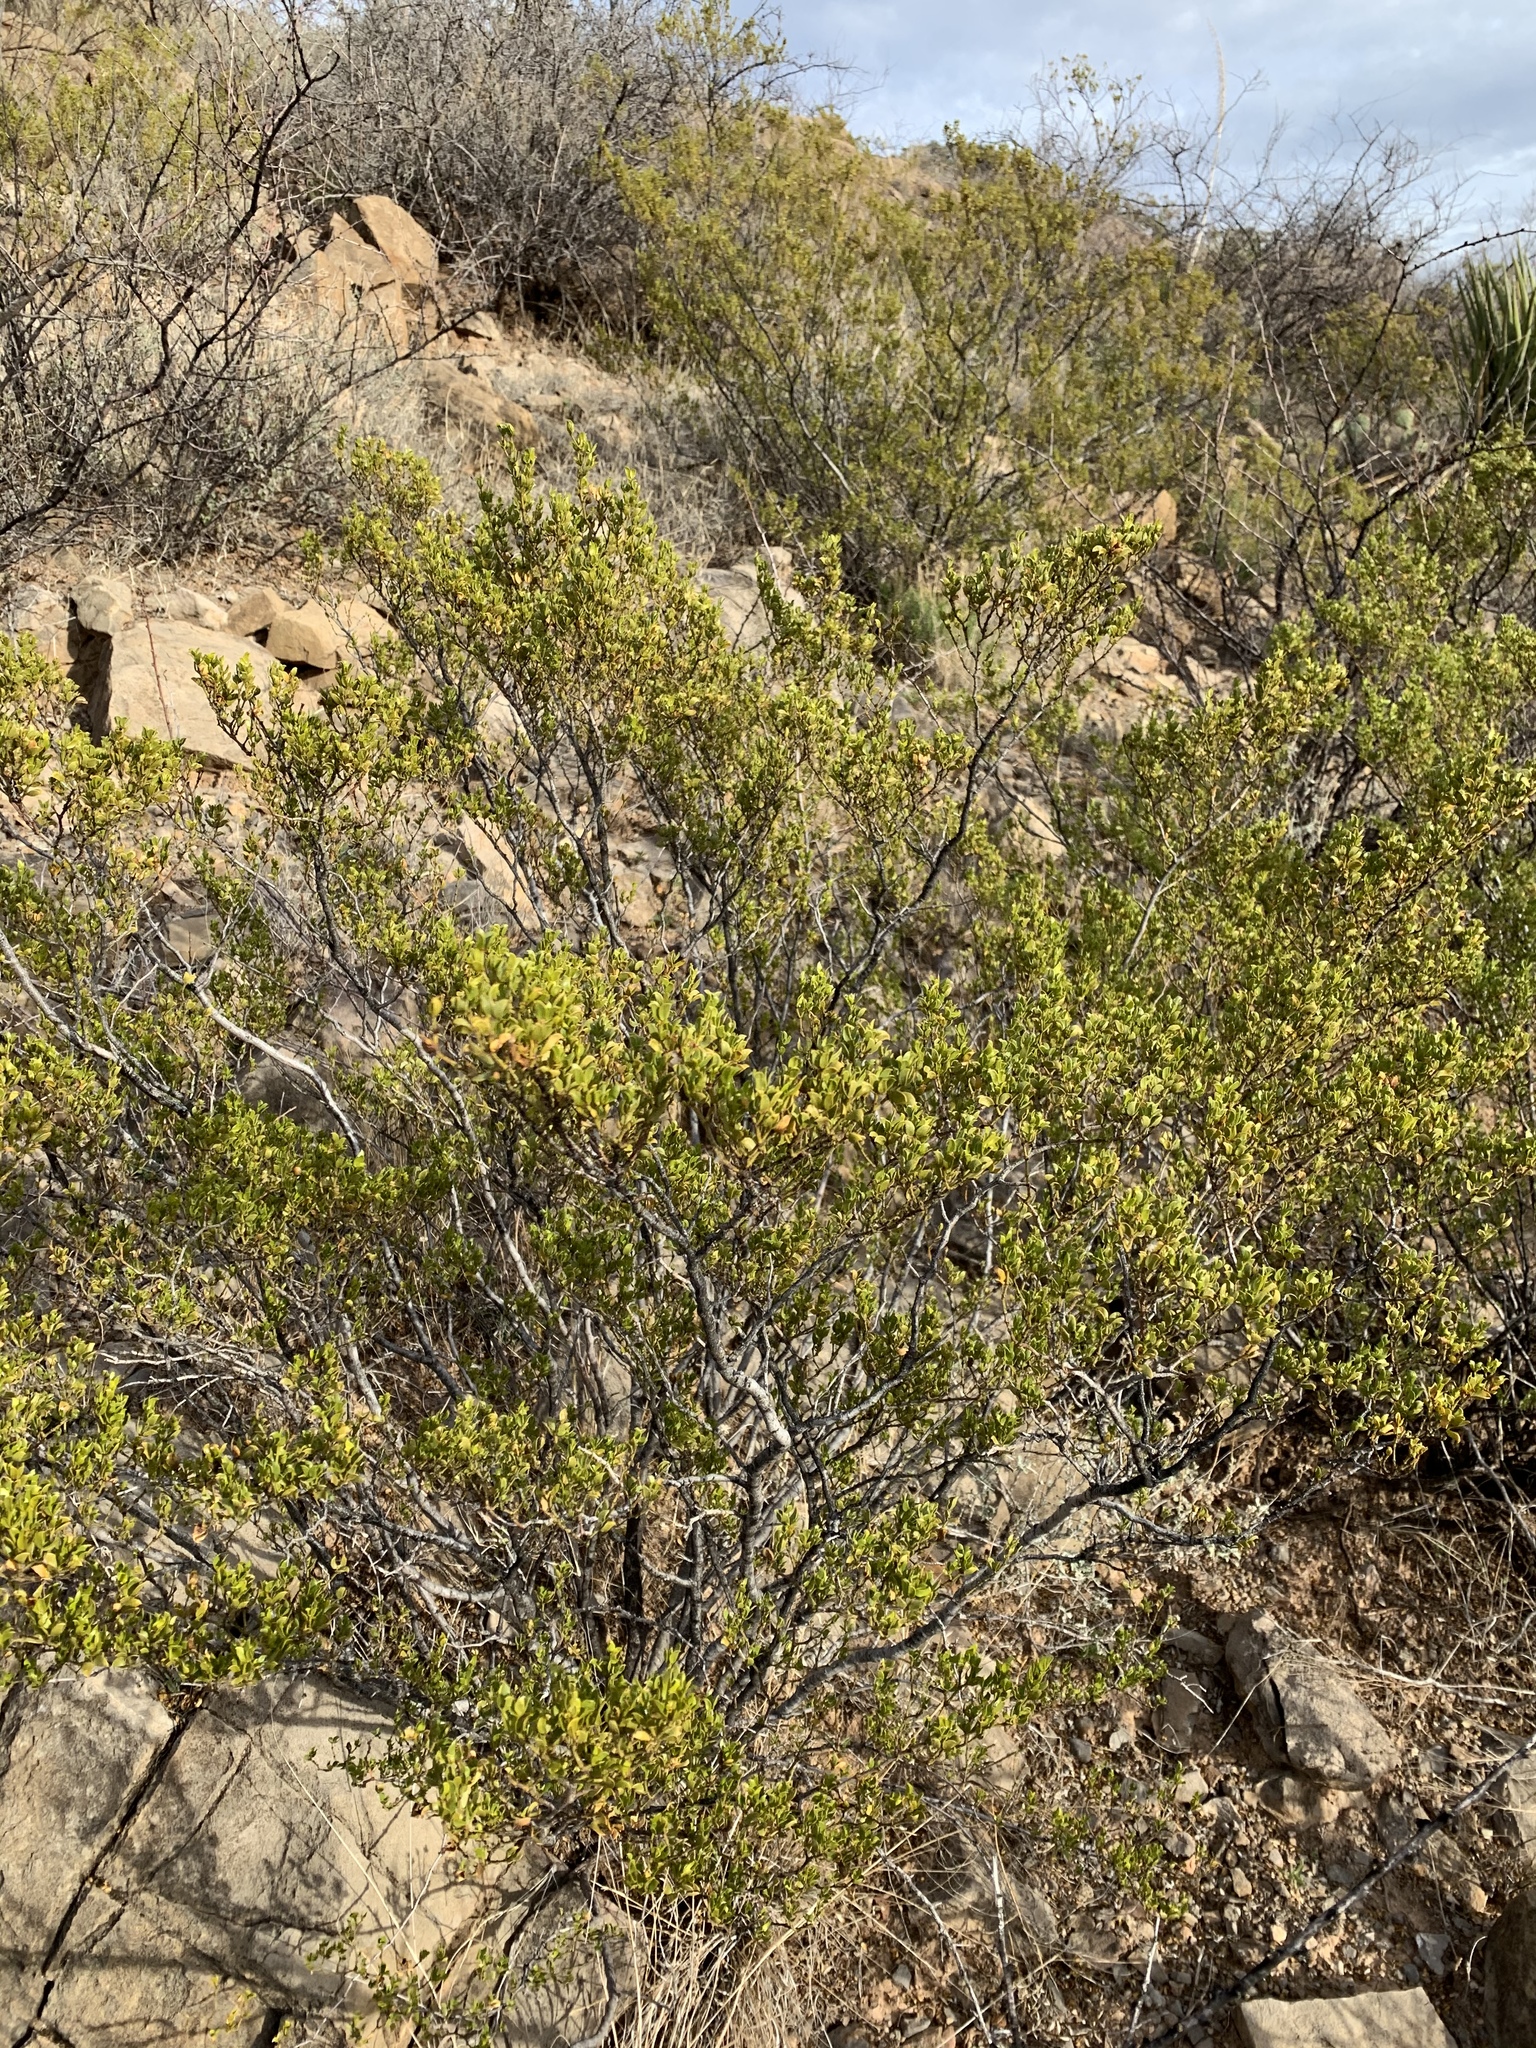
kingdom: Plantae
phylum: Tracheophyta
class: Magnoliopsida
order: Zygophyllales
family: Zygophyllaceae
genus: Larrea
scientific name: Larrea tridentata
